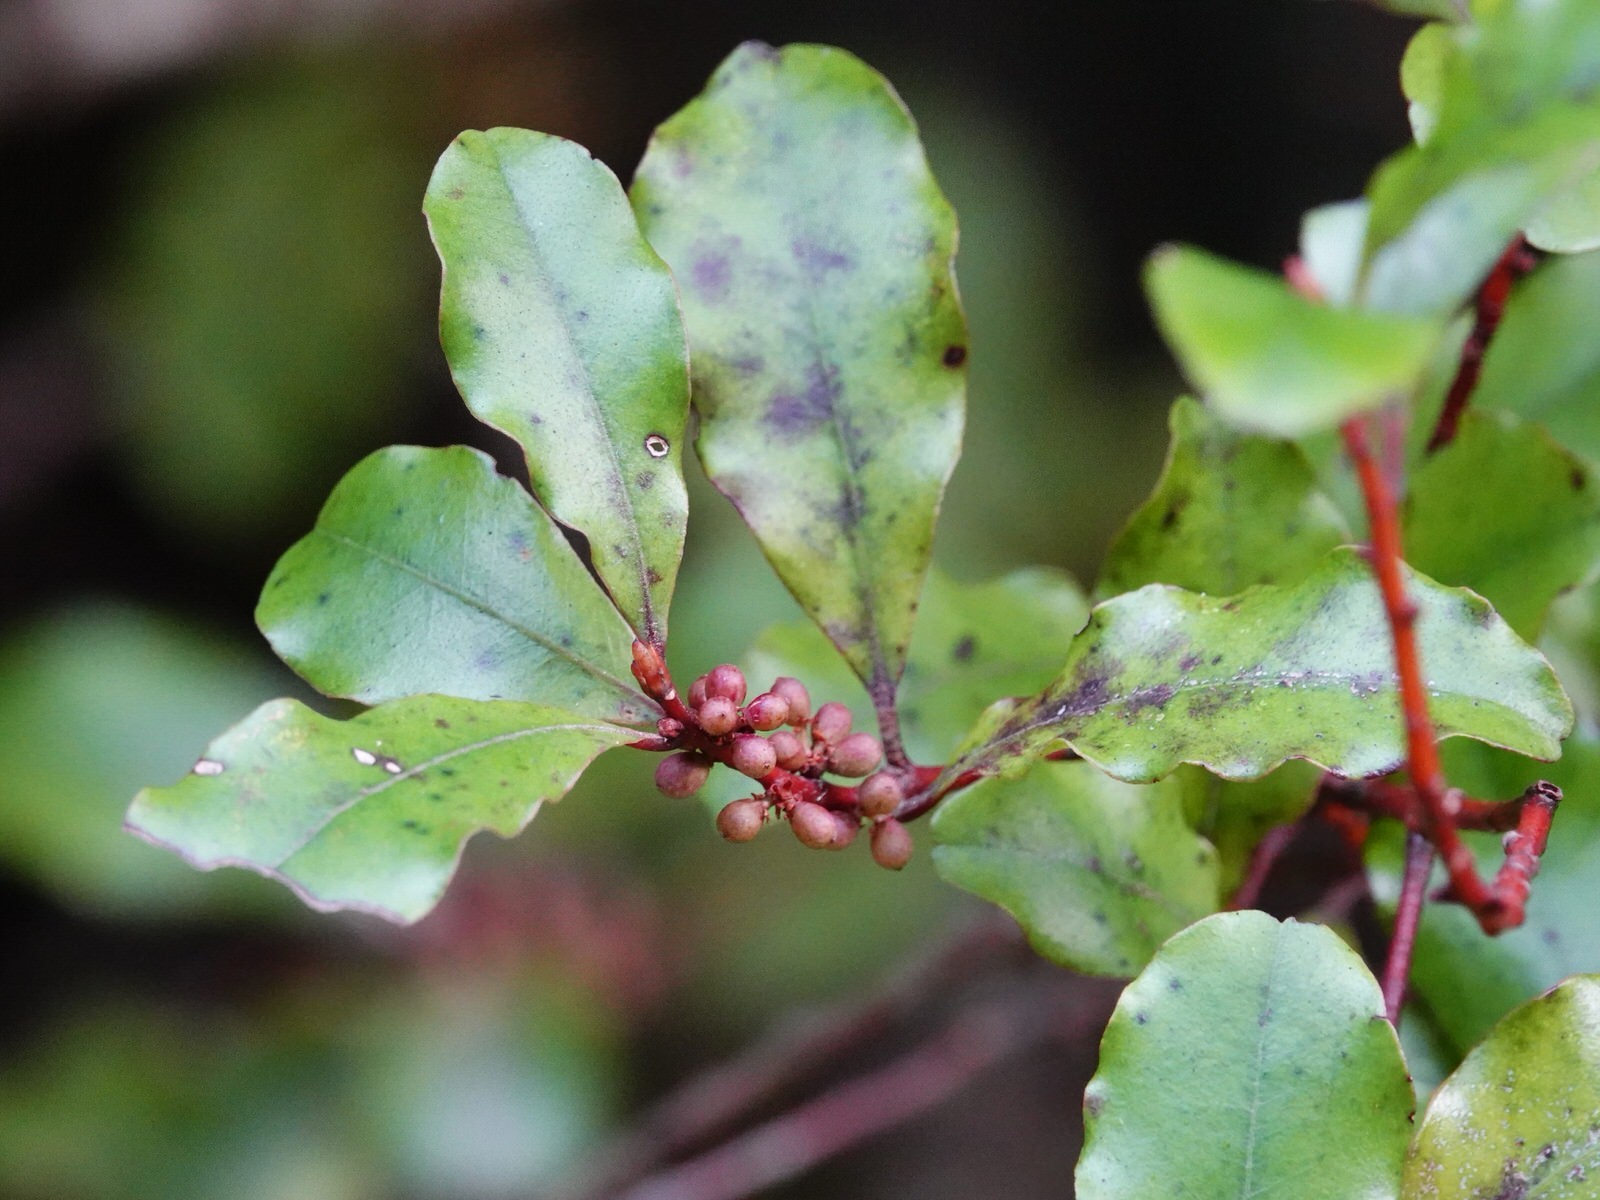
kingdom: Plantae
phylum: Tracheophyta
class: Magnoliopsida
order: Ericales
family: Primulaceae
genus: Myrsine
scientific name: Myrsine australis
